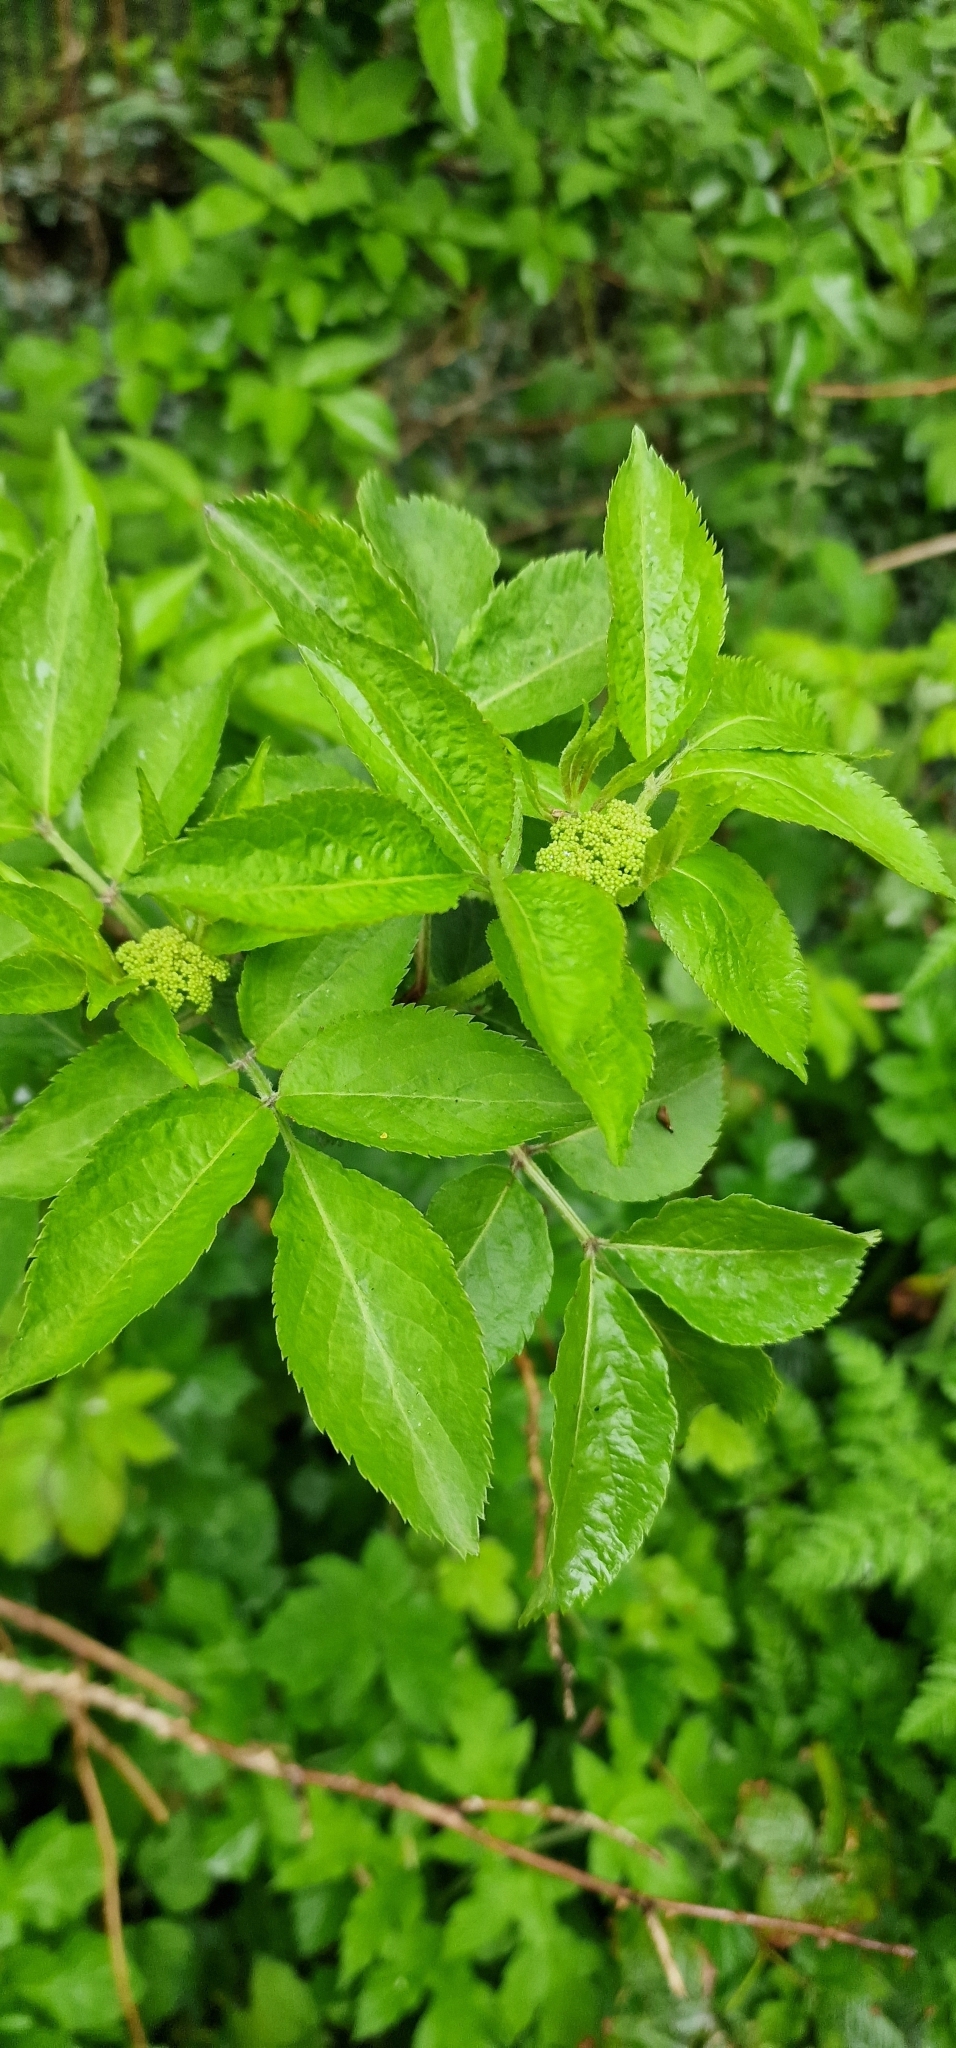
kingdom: Plantae
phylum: Tracheophyta
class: Magnoliopsida
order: Dipsacales
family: Viburnaceae
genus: Sambucus
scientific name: Sambucus nigra
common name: Elder
